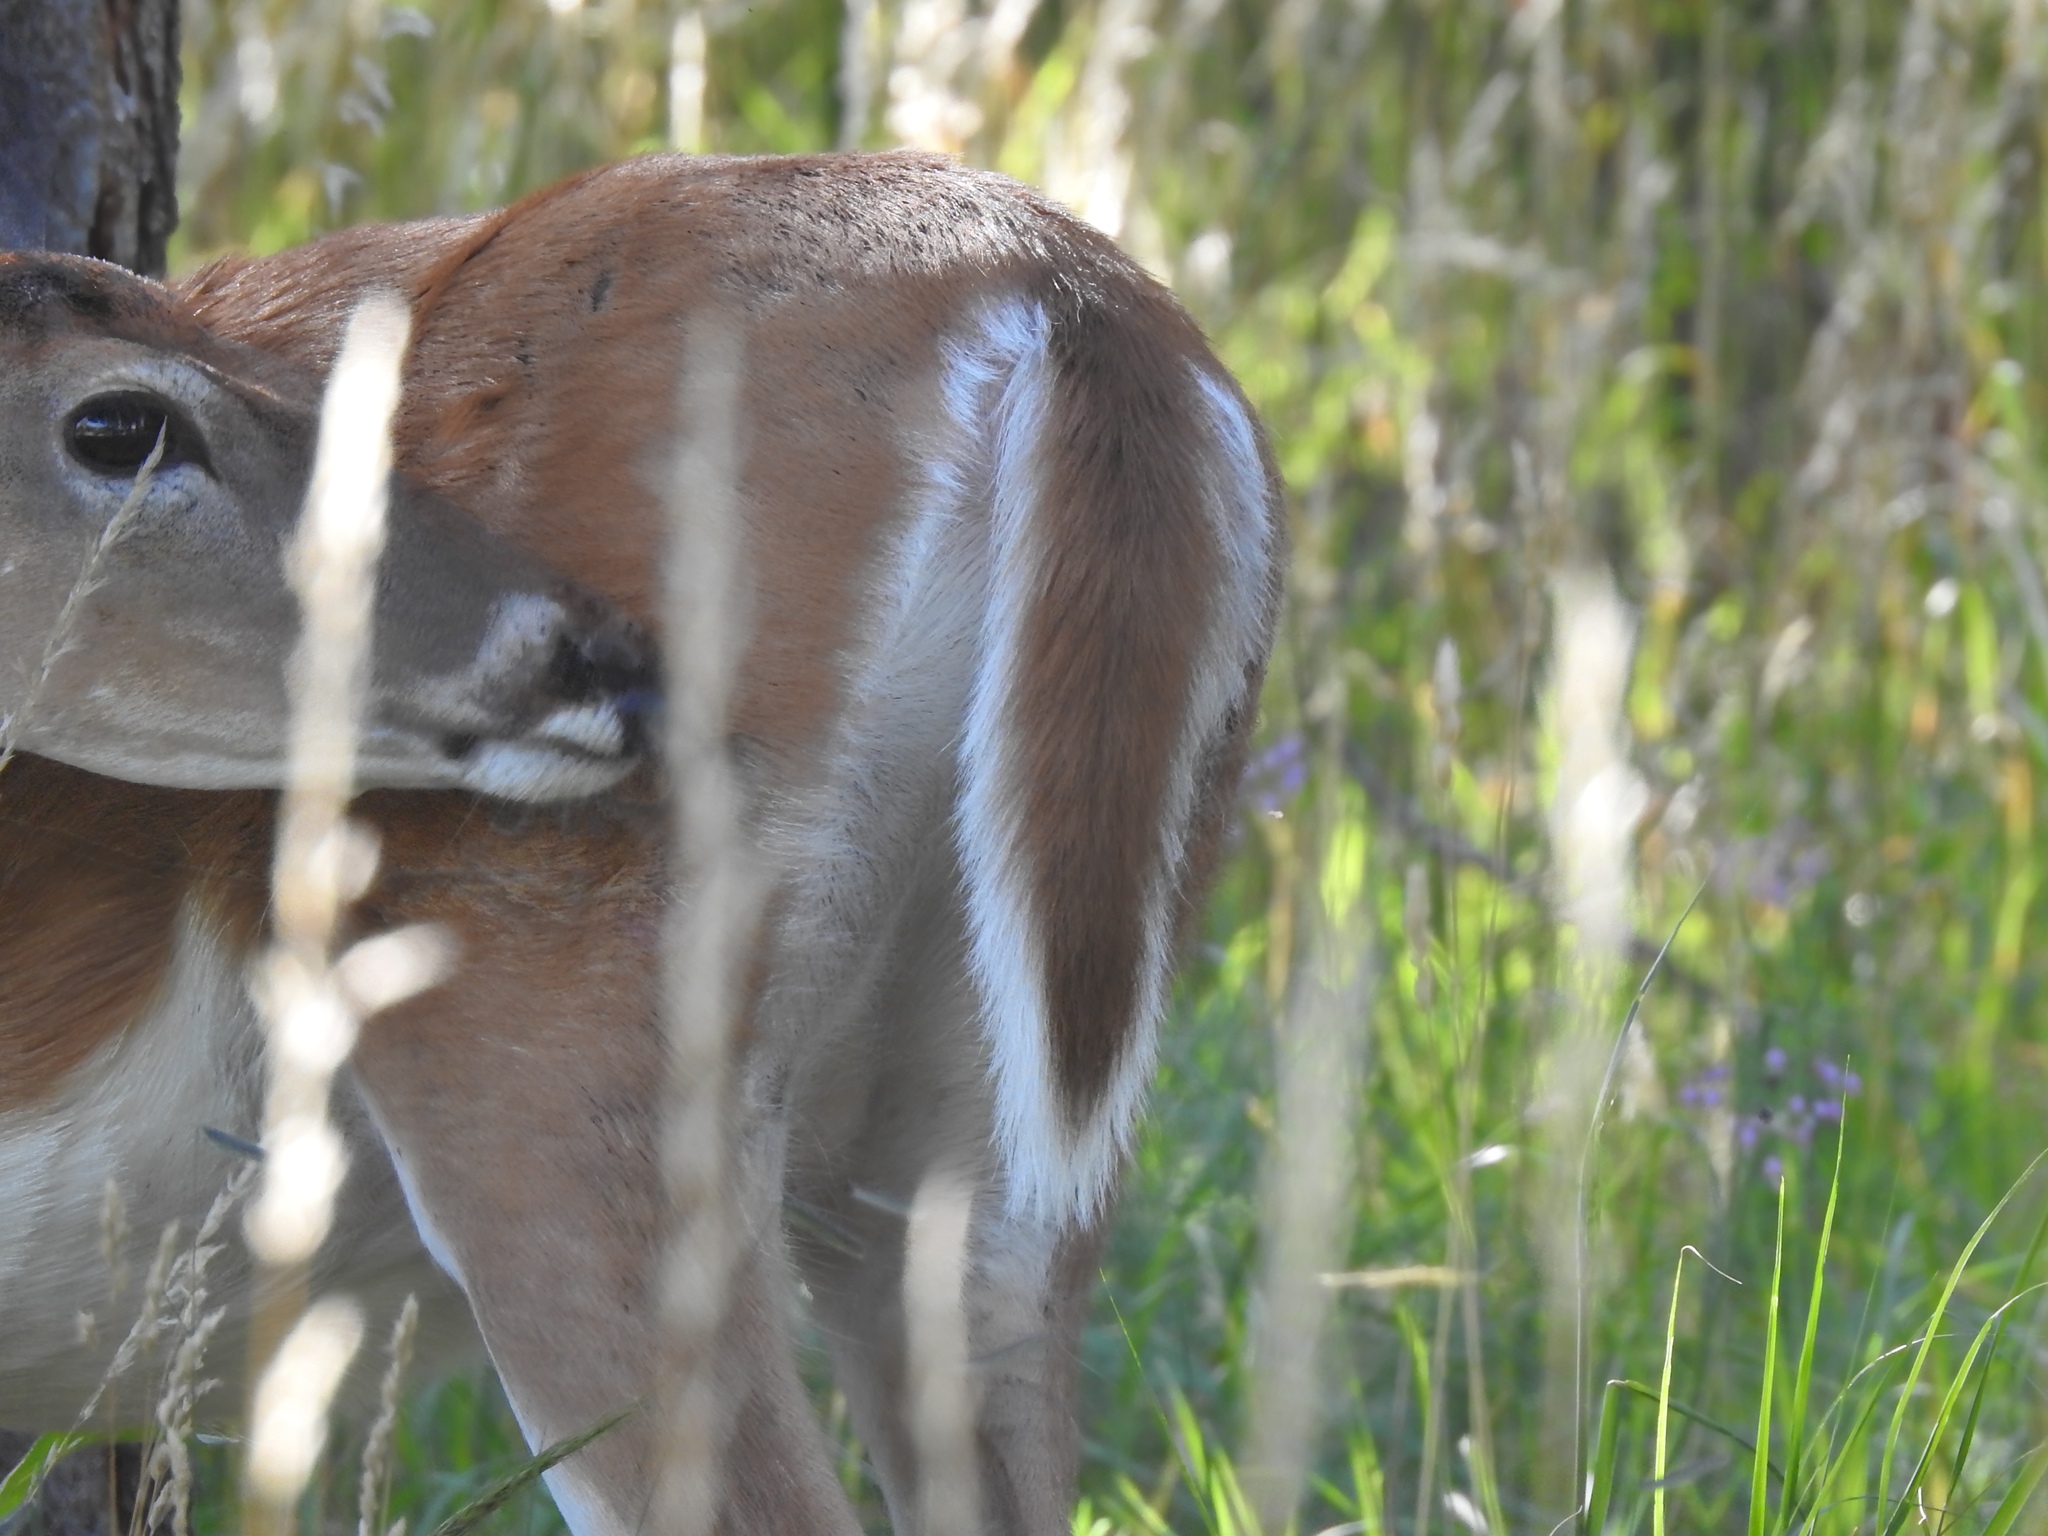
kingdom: Animalia
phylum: Chordata
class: Mammalia
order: Artiodactyla
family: Cervidae
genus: Odocoileus
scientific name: Odocoileus virginianus
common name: White-tailed deer
